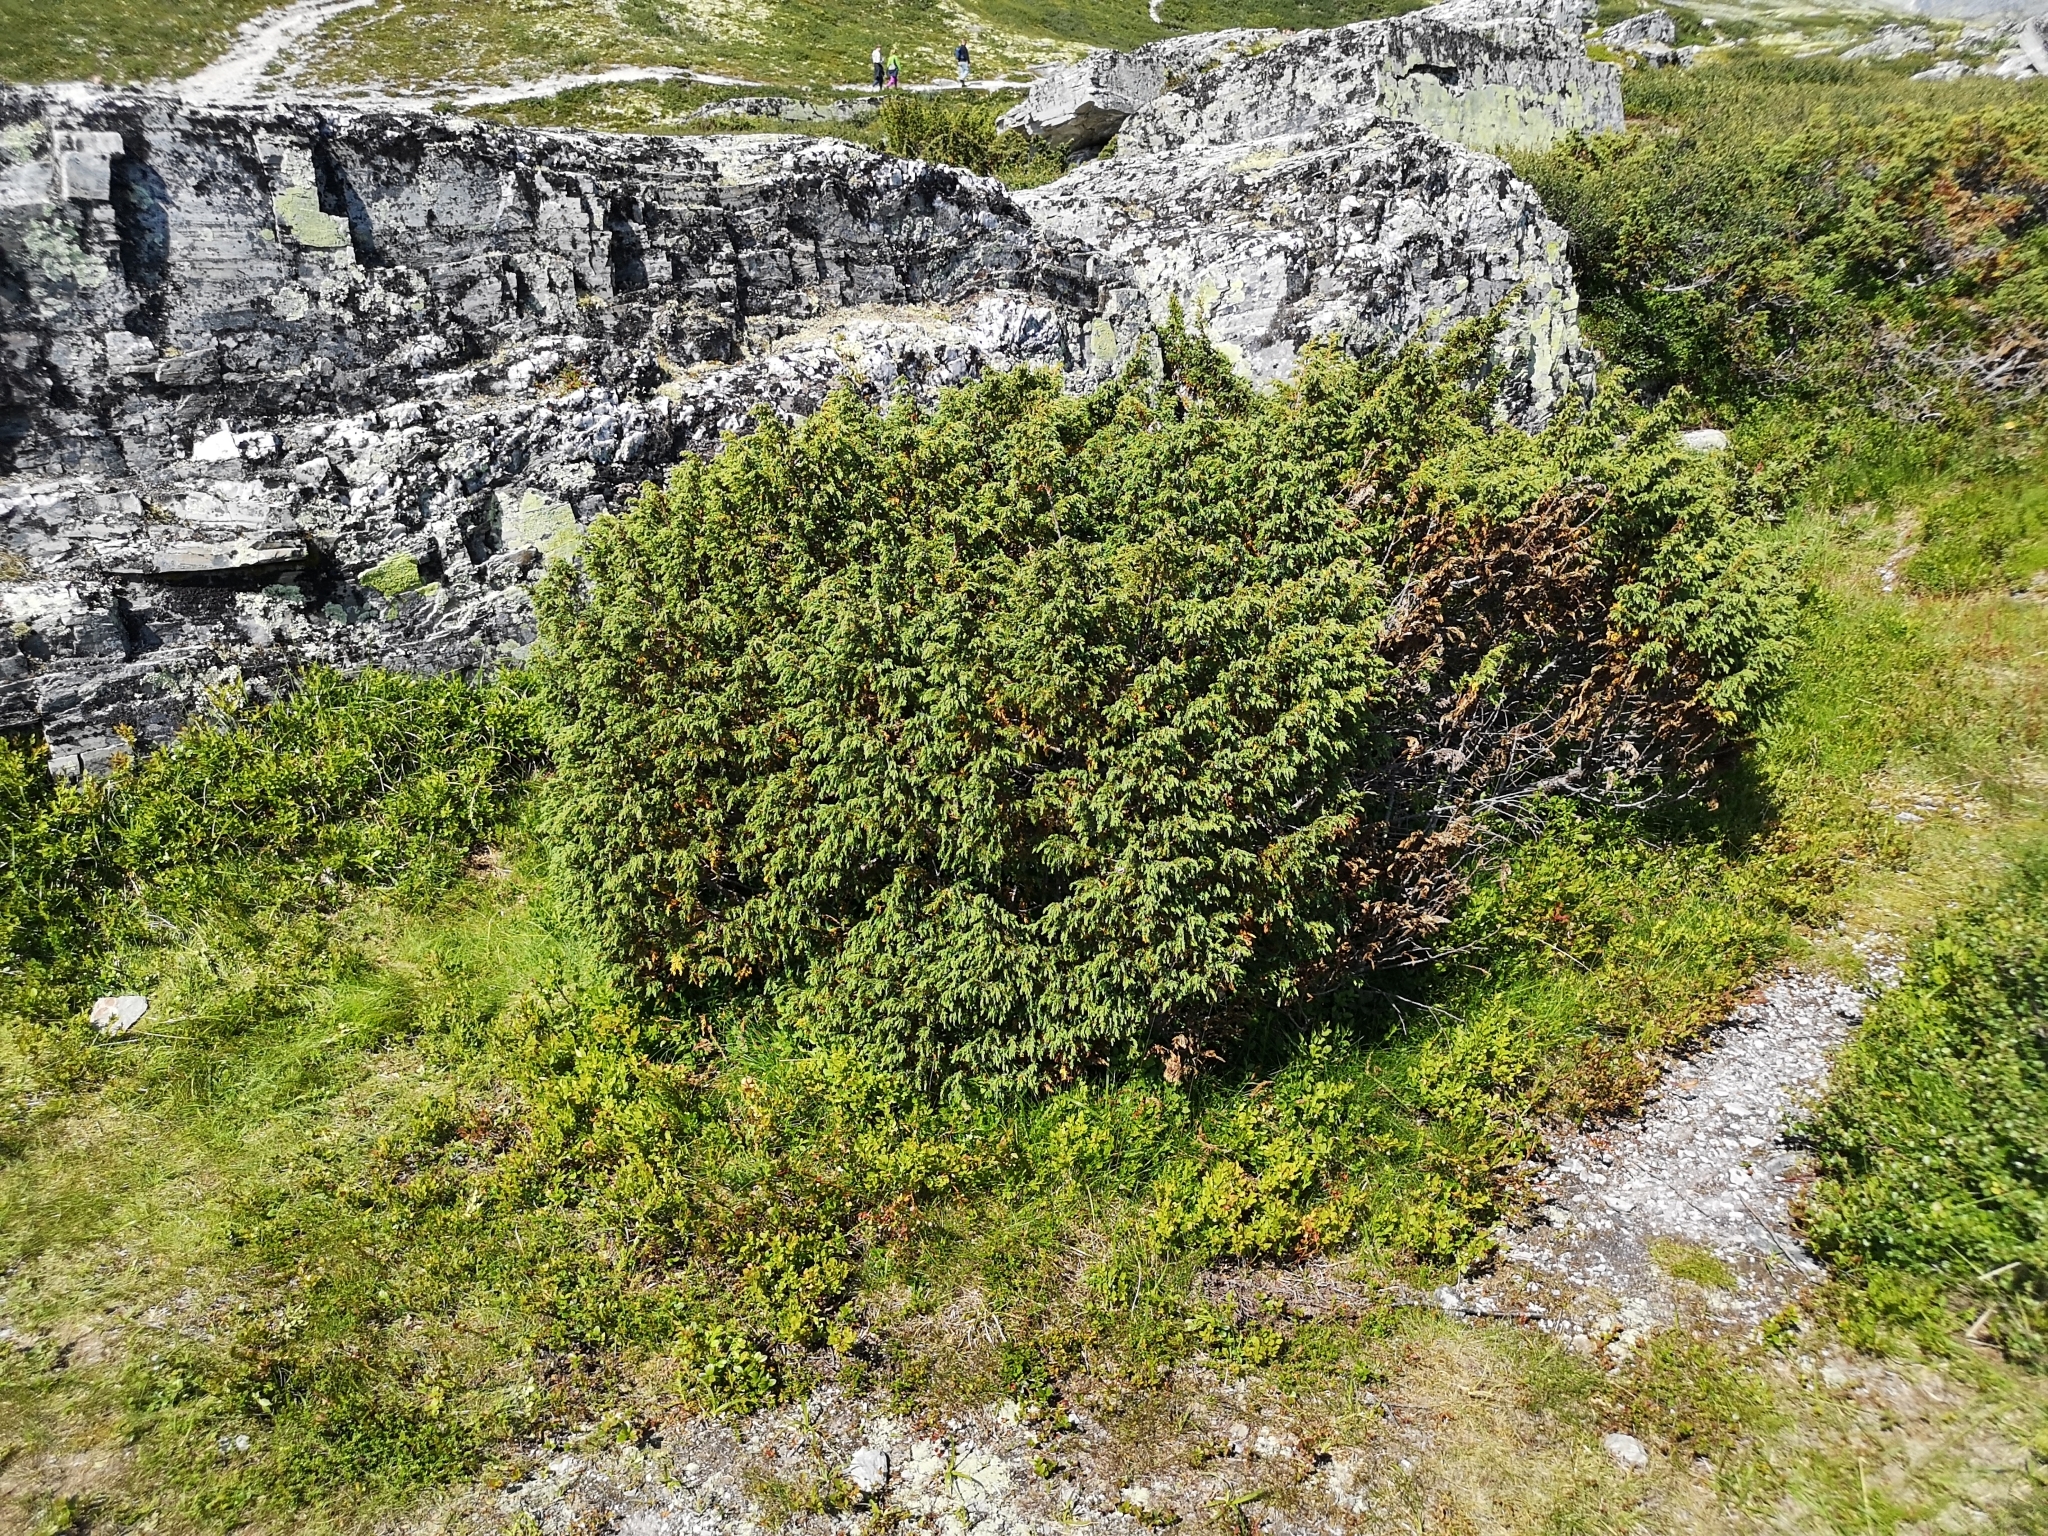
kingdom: Plantae
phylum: Tracheophyta
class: Pinopsida
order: Pinales
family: Cupressaceae
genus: Juniperus
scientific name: Juniperus communis
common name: Common juniper
